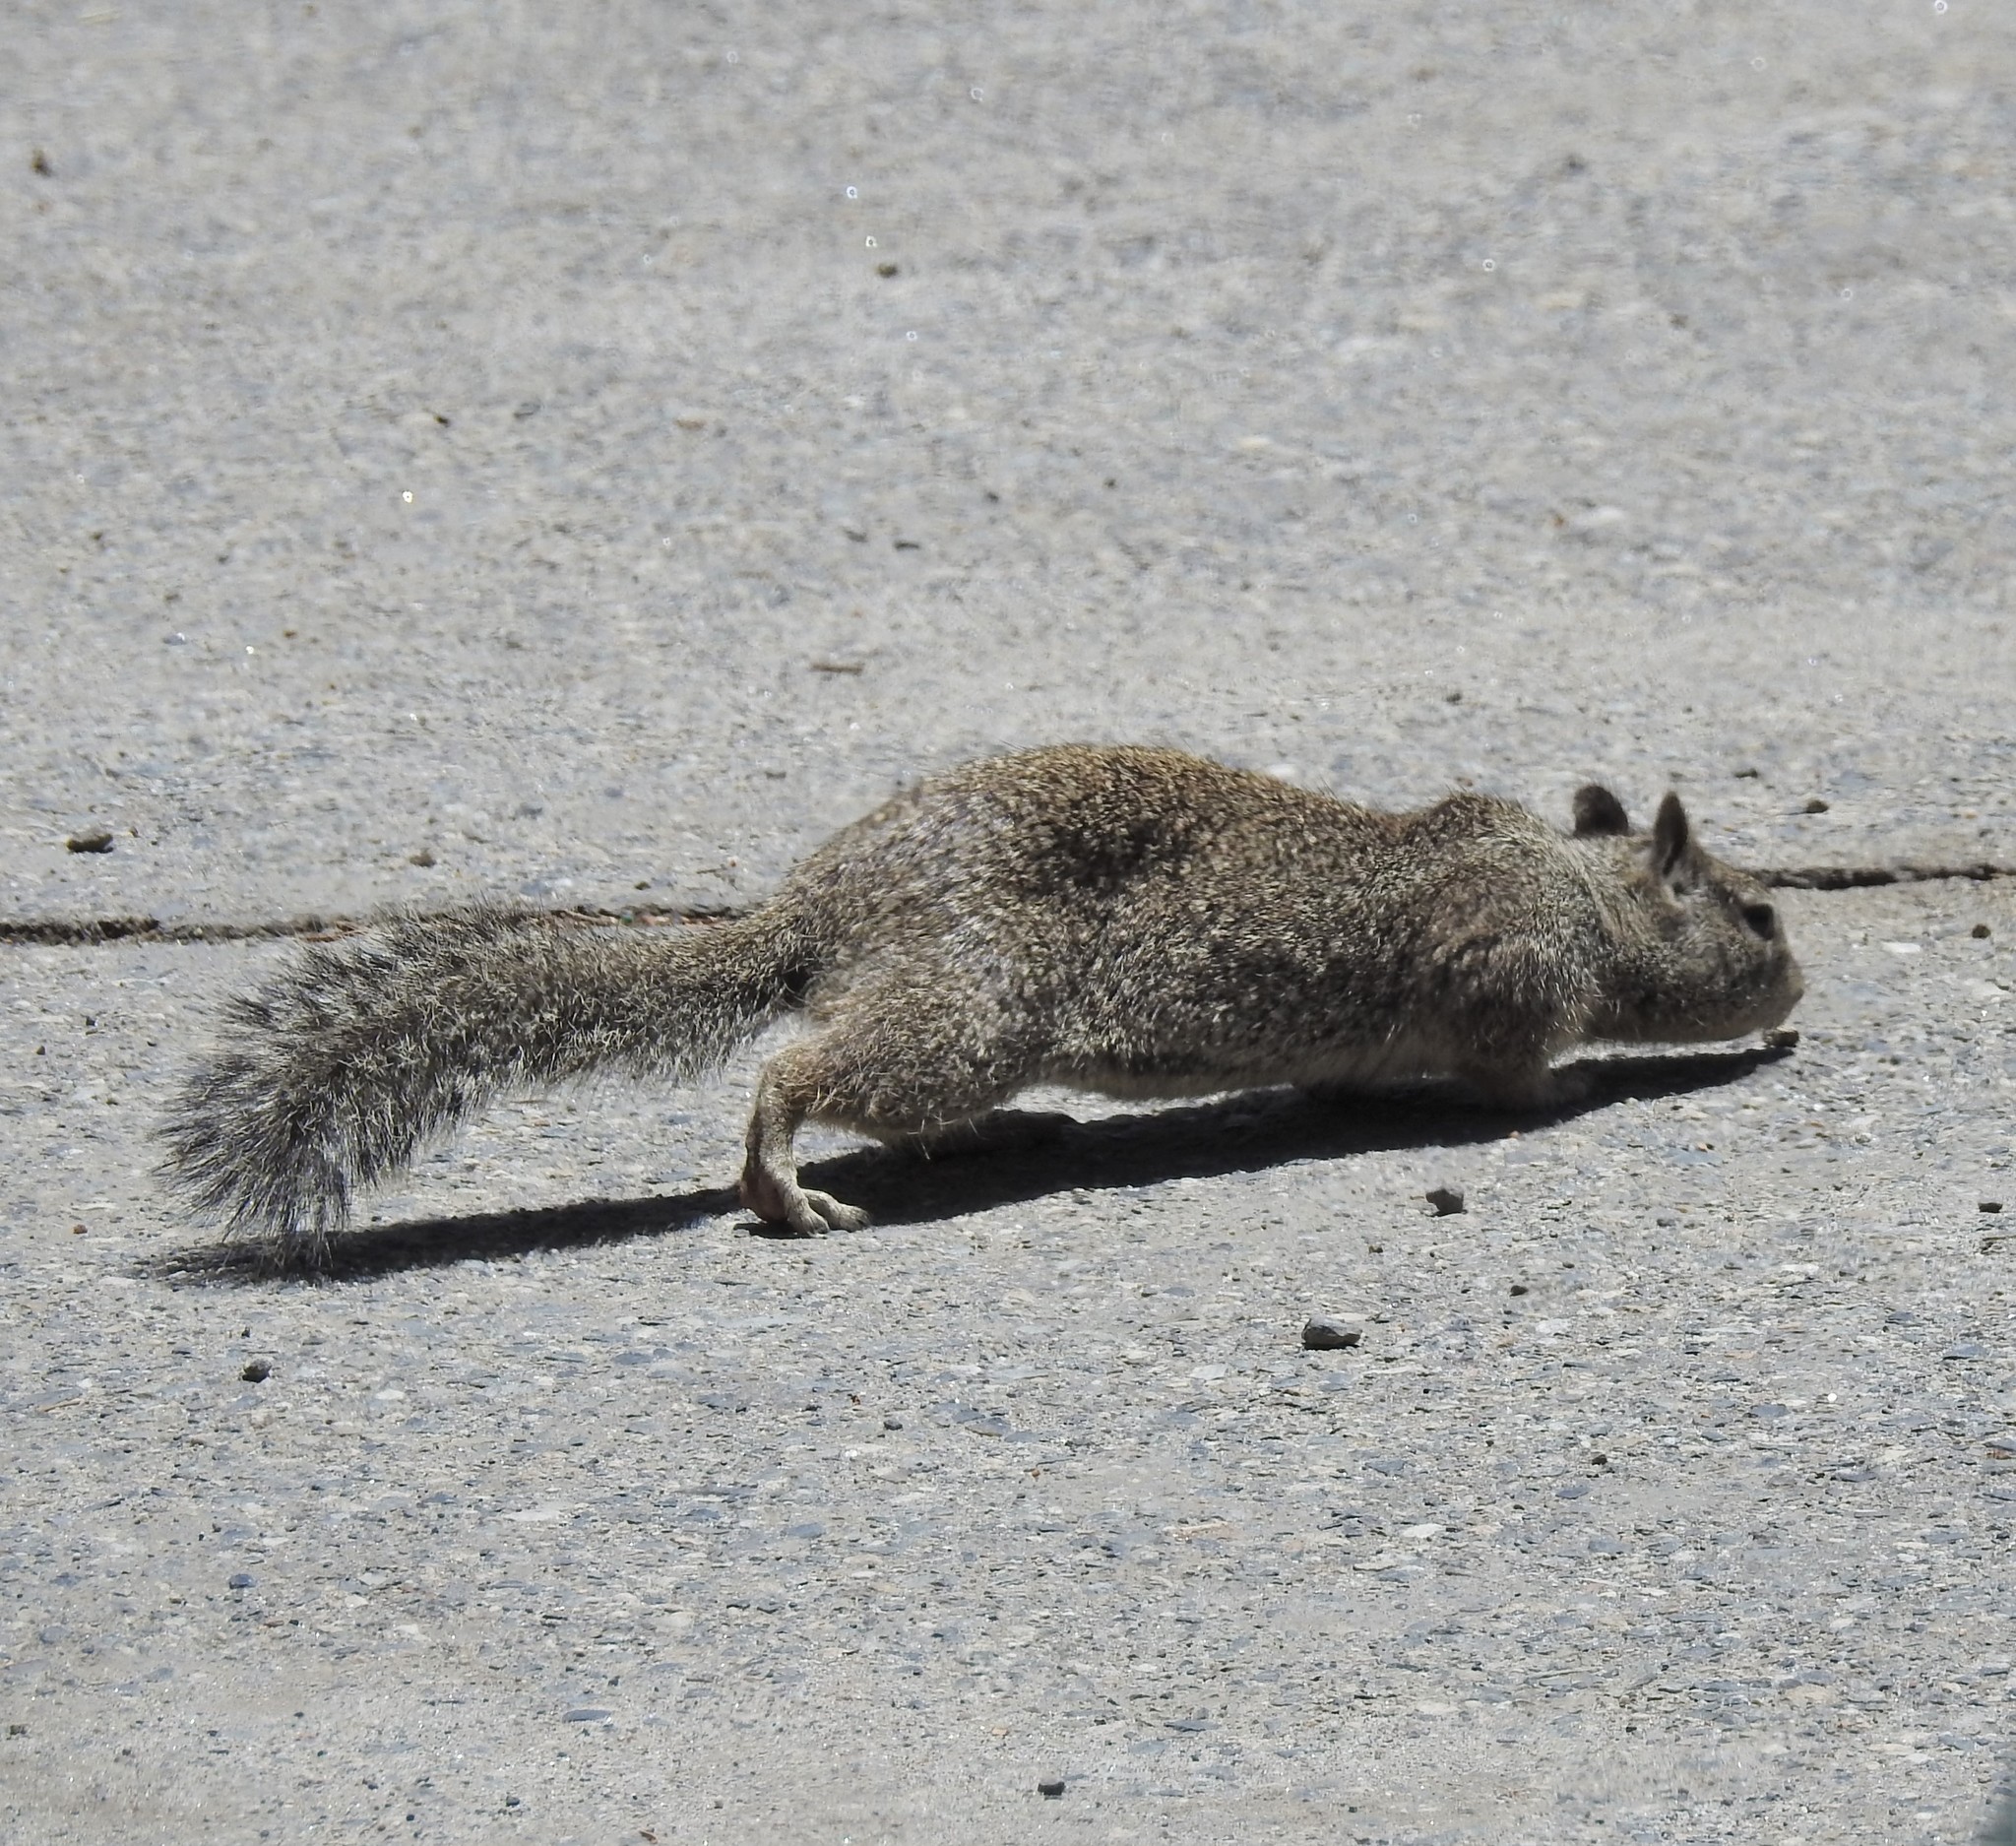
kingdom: Animalia
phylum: Chordata
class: Mammalia
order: Rodentia
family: Sciuridae
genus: Otospermophilus
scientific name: Otospermophilus beecheyi
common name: California ground squirrel
